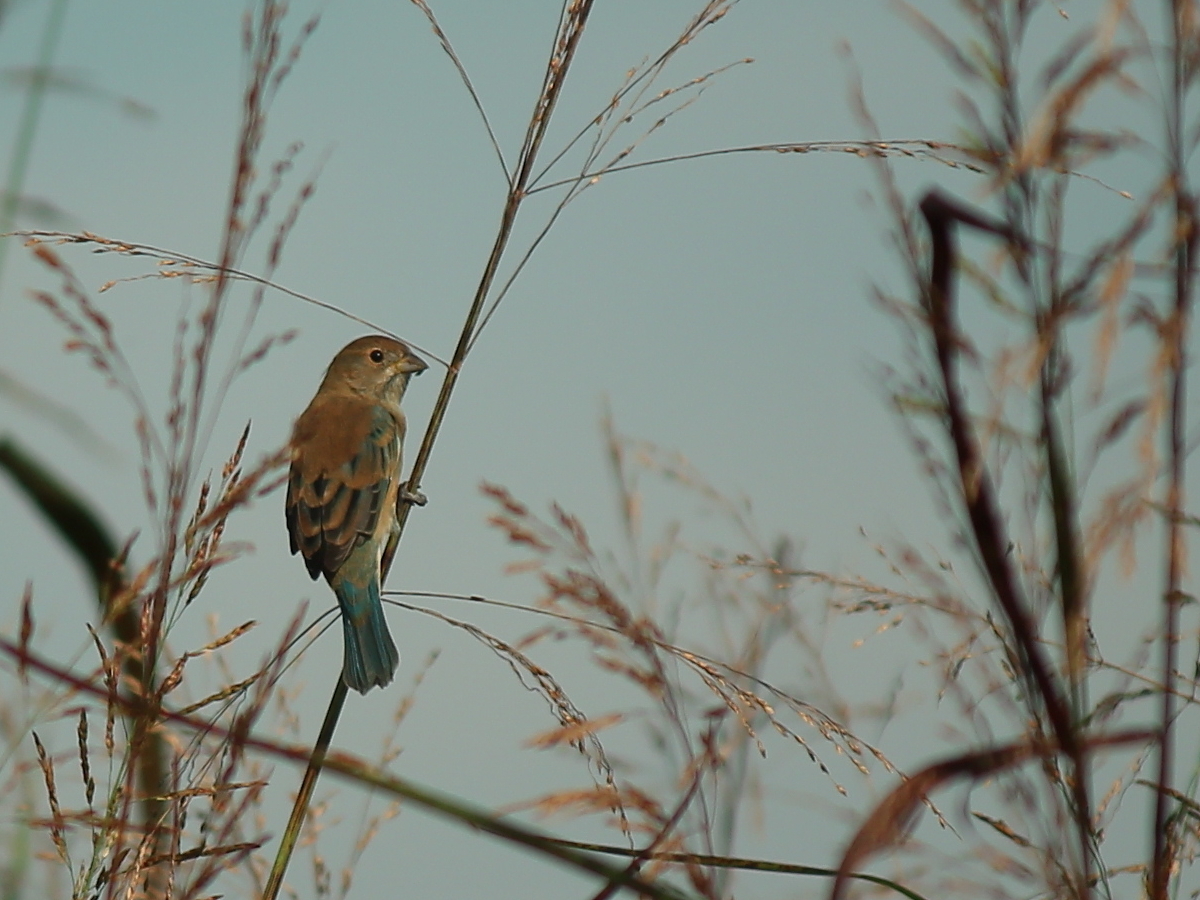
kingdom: Animalia
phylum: Chordata
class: Aves
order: Passeriformes
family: Cardinalidae
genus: Passerina
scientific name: Passerina cyanea
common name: Indigo bunting
